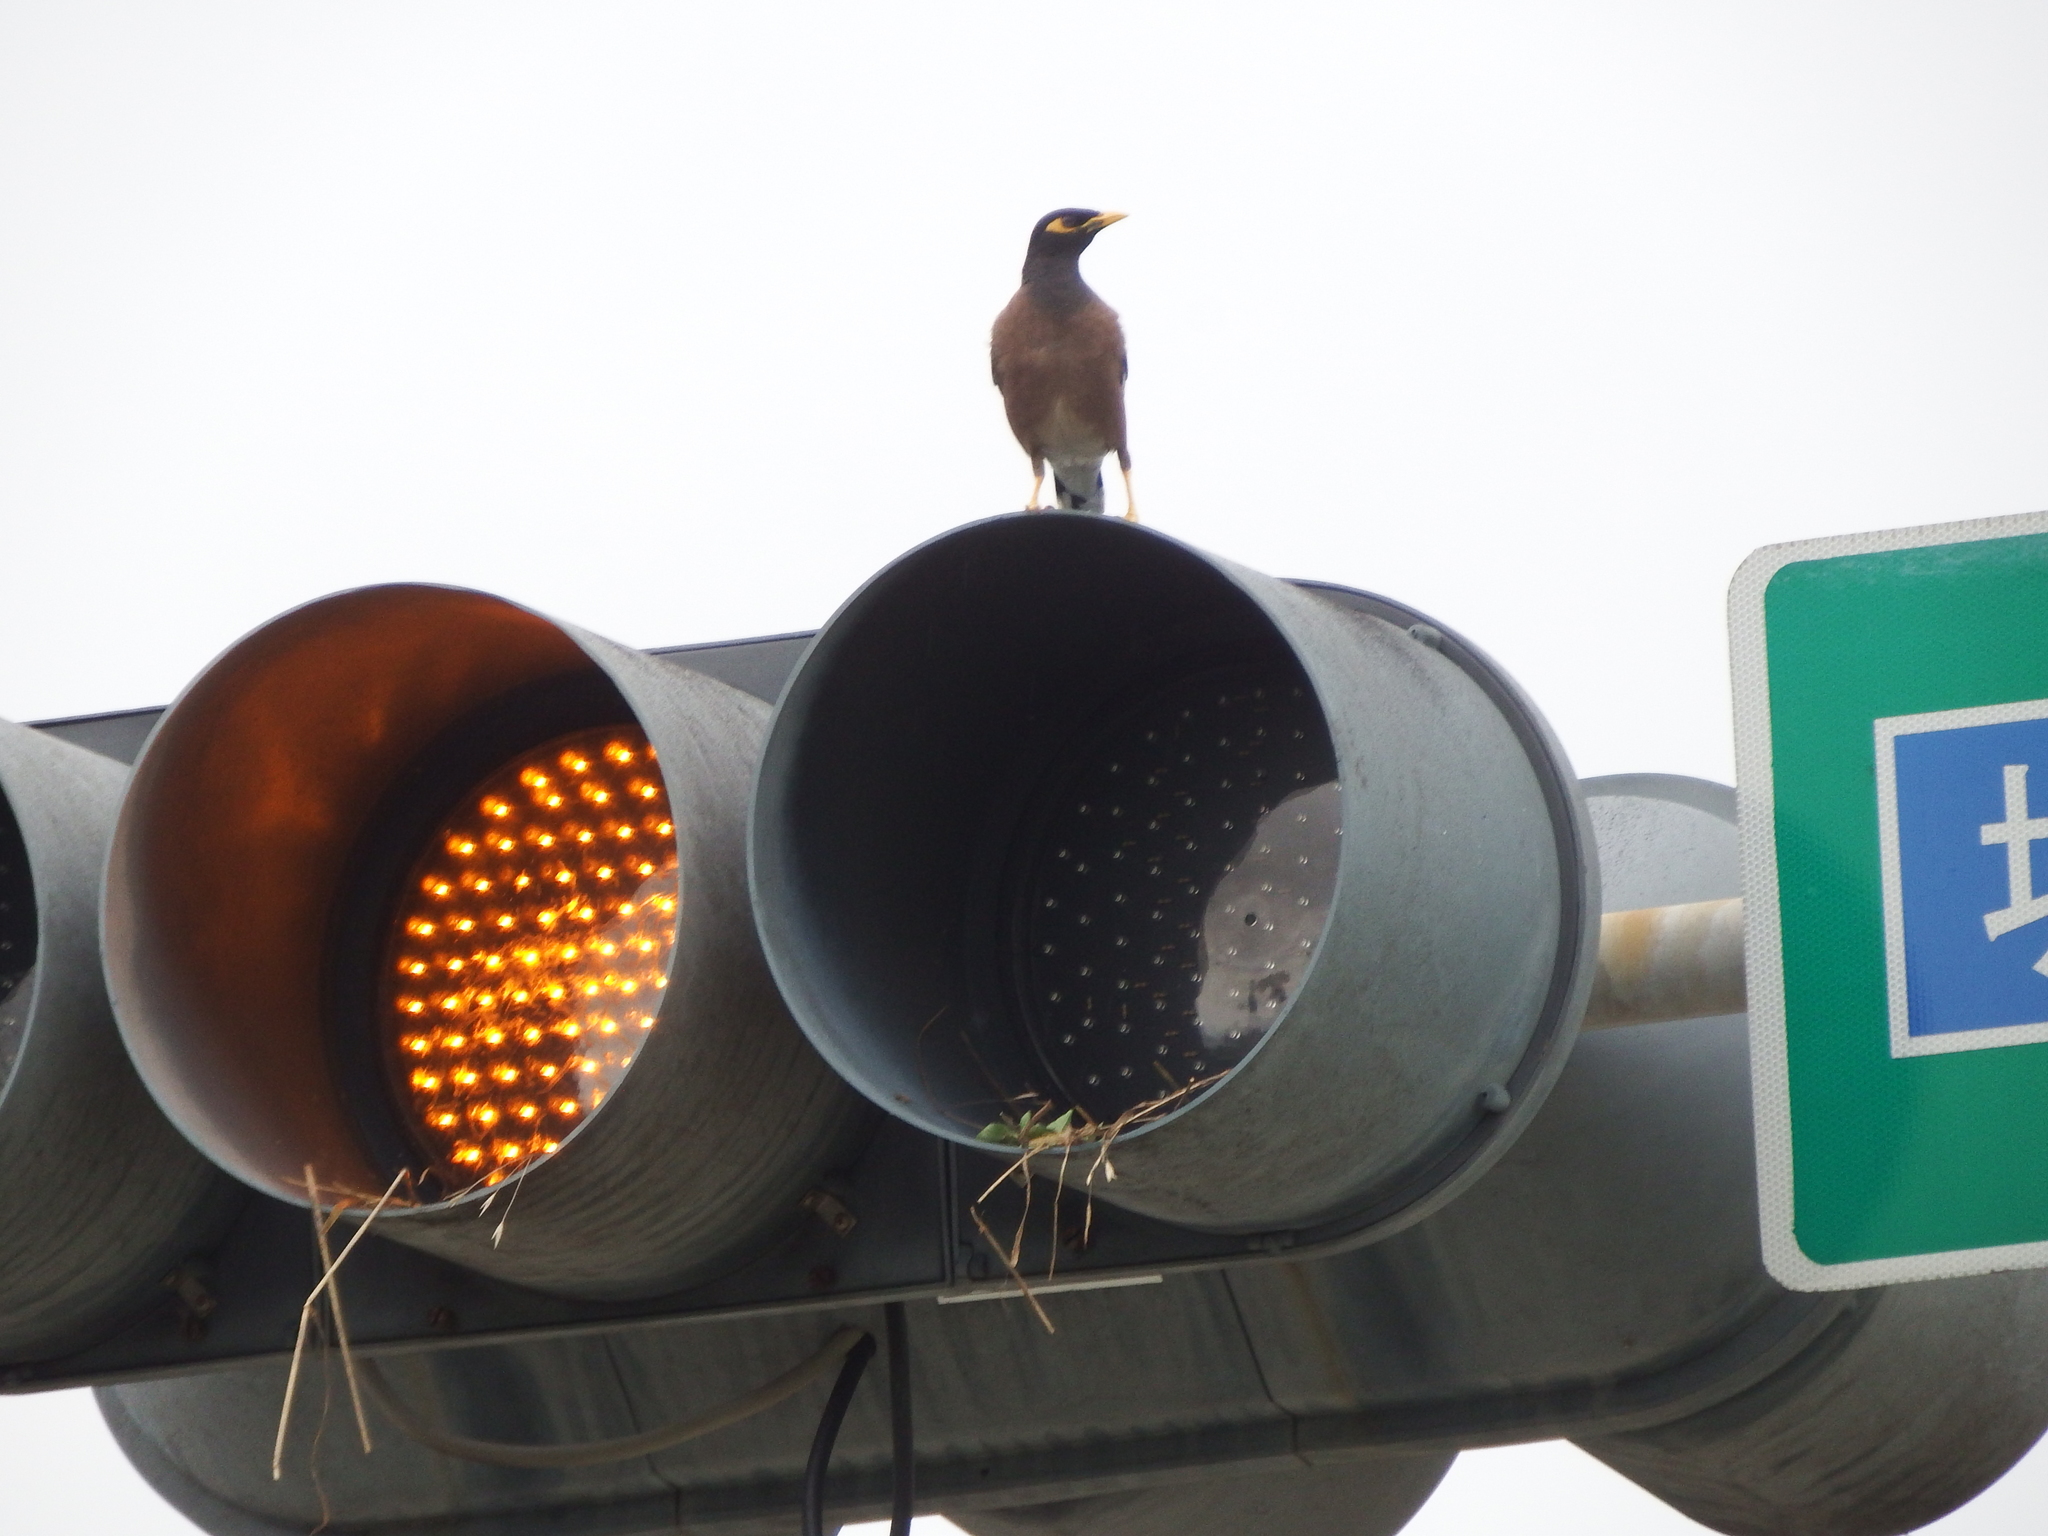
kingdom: Animalia
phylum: Chordata
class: Aves
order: Passeriformes
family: Sturnidae
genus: Acridotheres
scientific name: Acridotheres tristis
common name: Common myna
